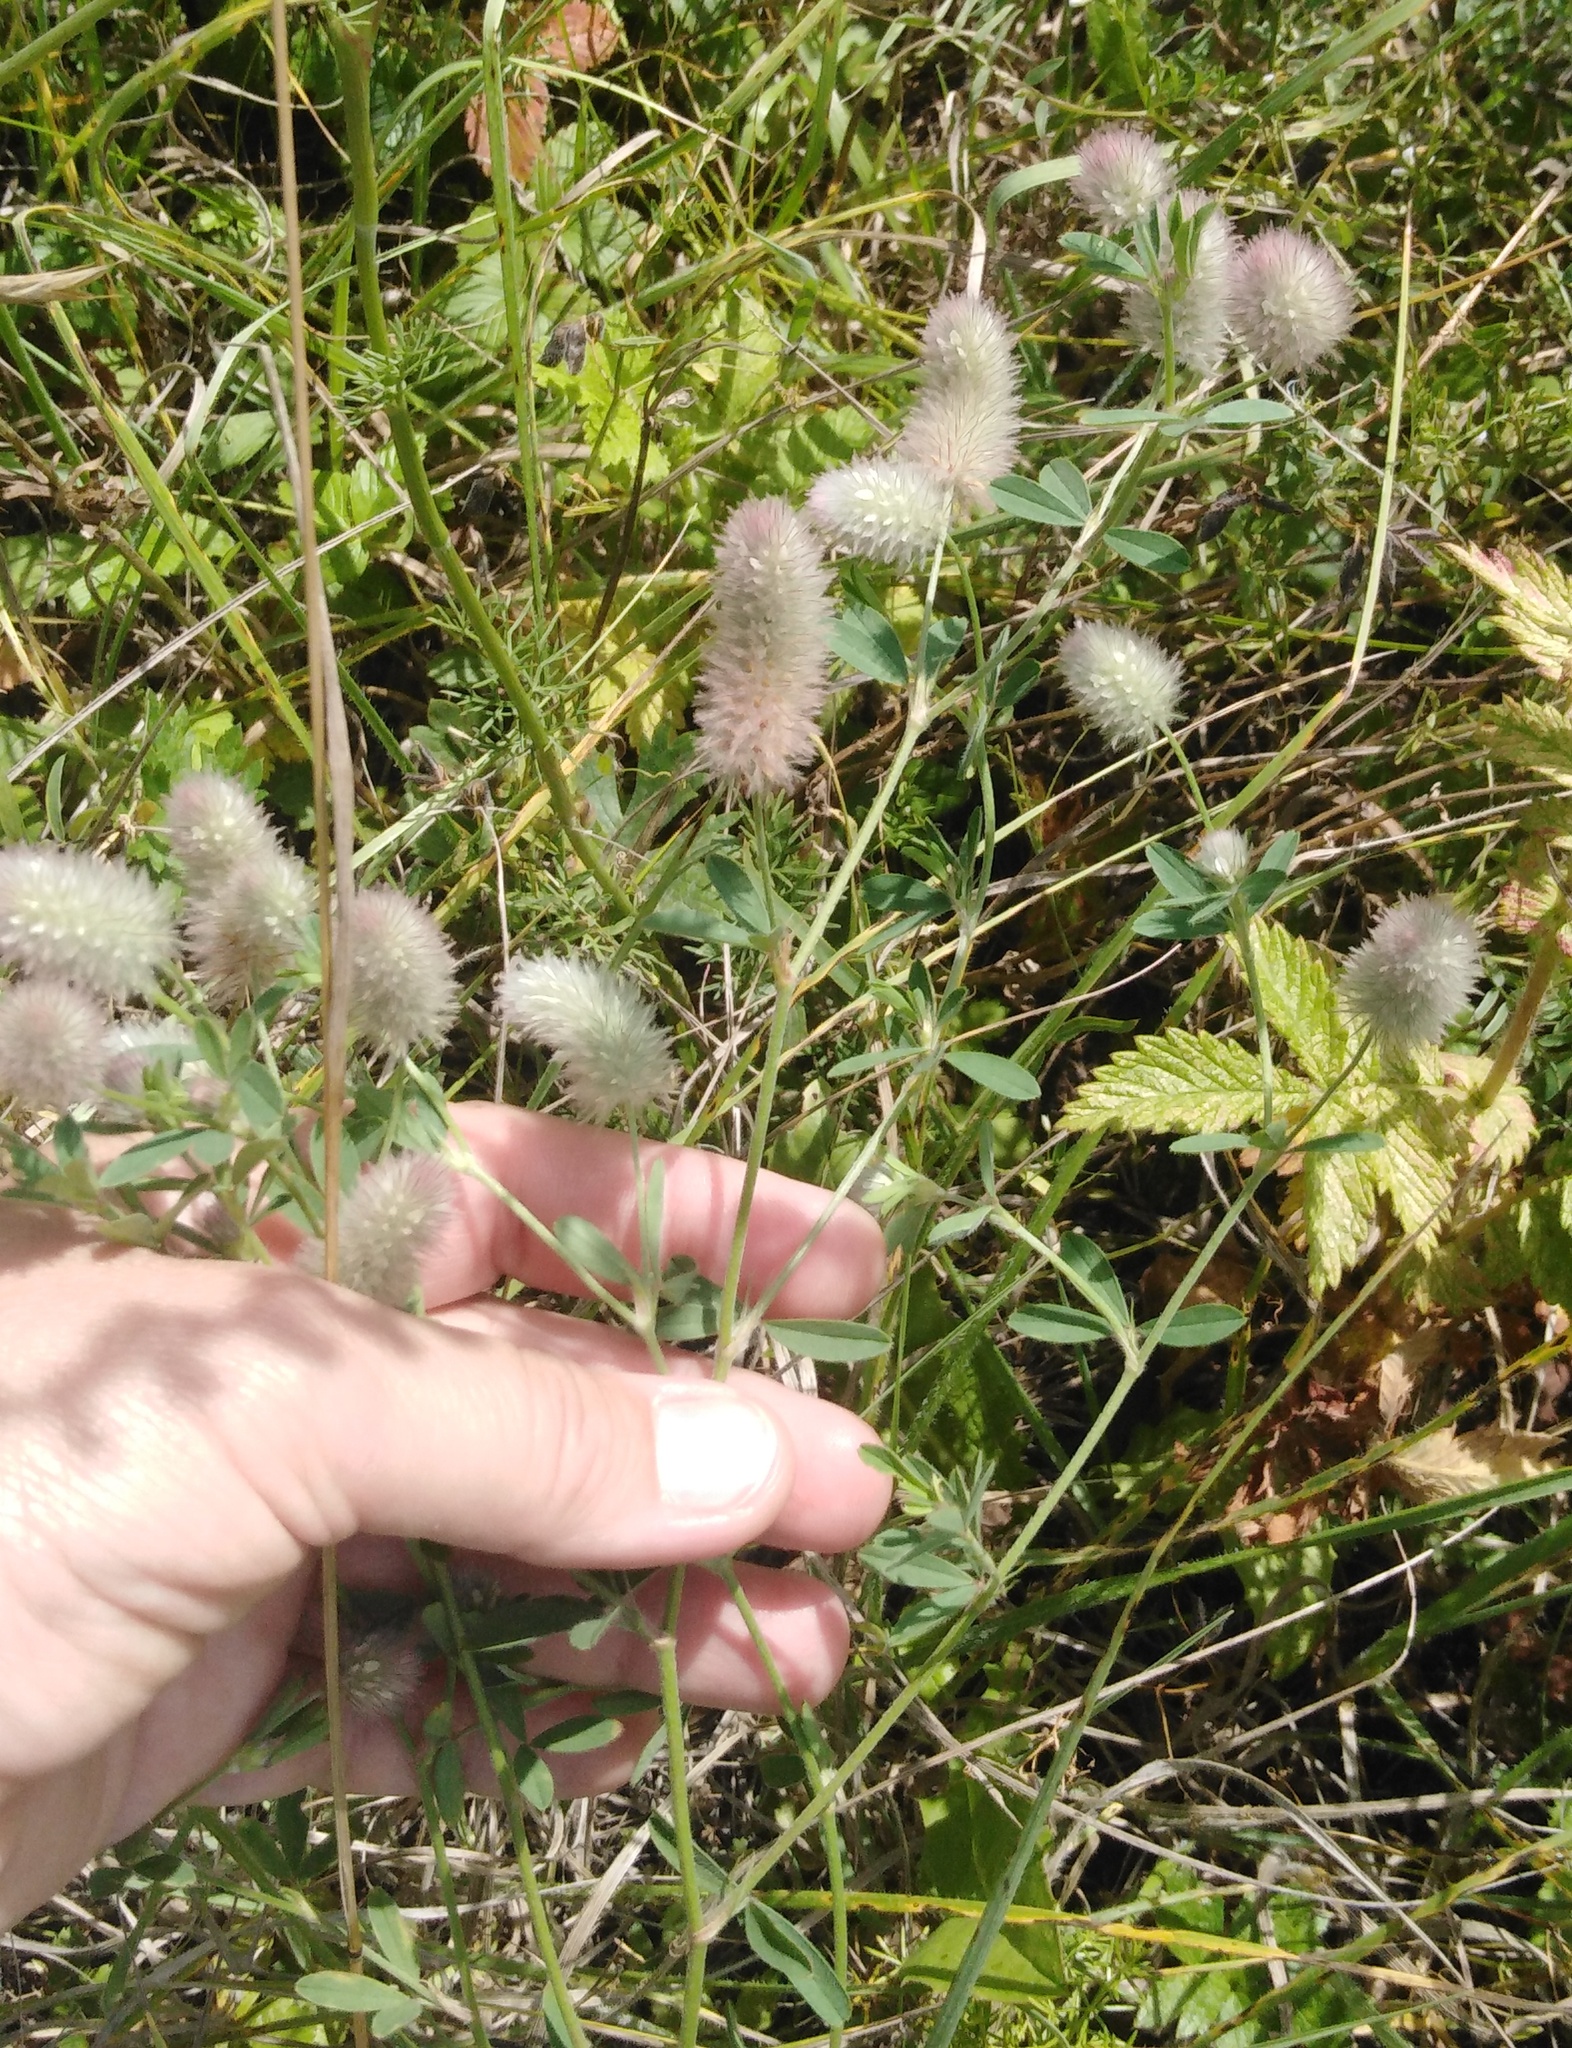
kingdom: Plantae
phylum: Tracheophyta
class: Magnoliopsida
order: Fabales
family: Fabaceae
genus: Trifolium
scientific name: Trifolium arvense
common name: Hare's-foot clover
